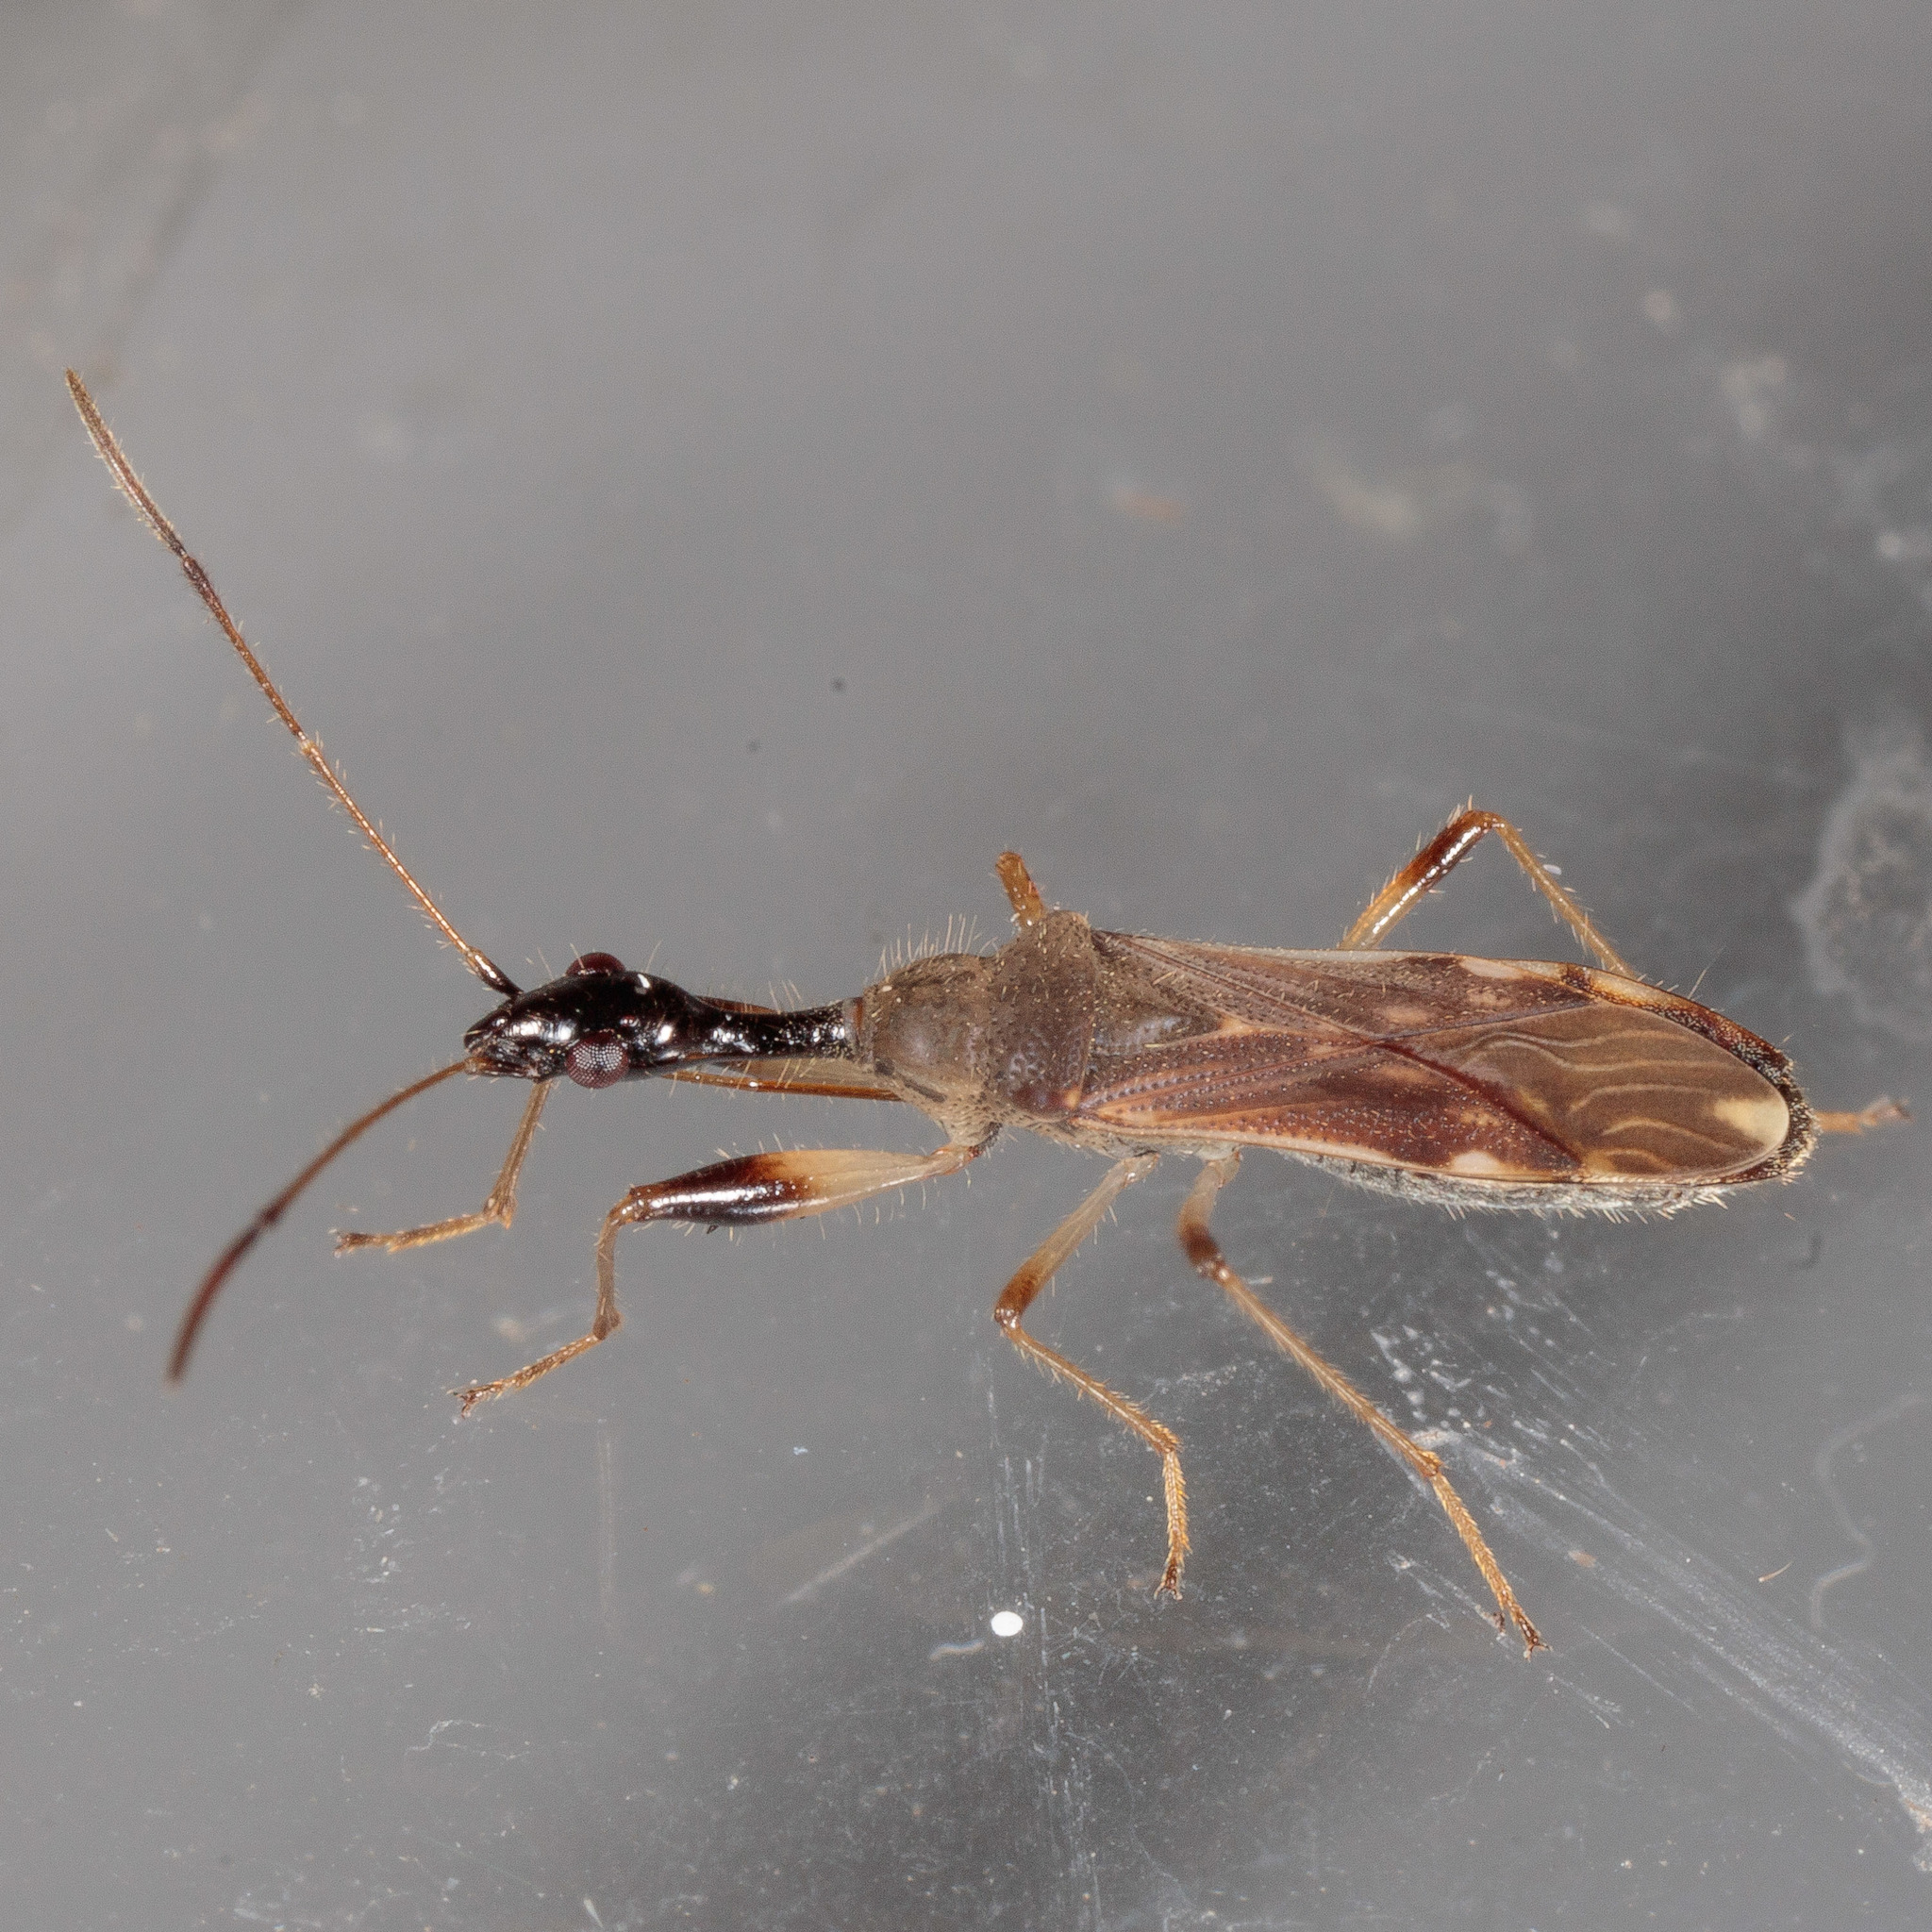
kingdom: Animalia
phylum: Arthropoda
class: Insecta
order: Hemiptera
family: Rhyparochromidae
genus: Myodocha
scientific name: Myodocha serripes
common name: Long-necked seed bug
